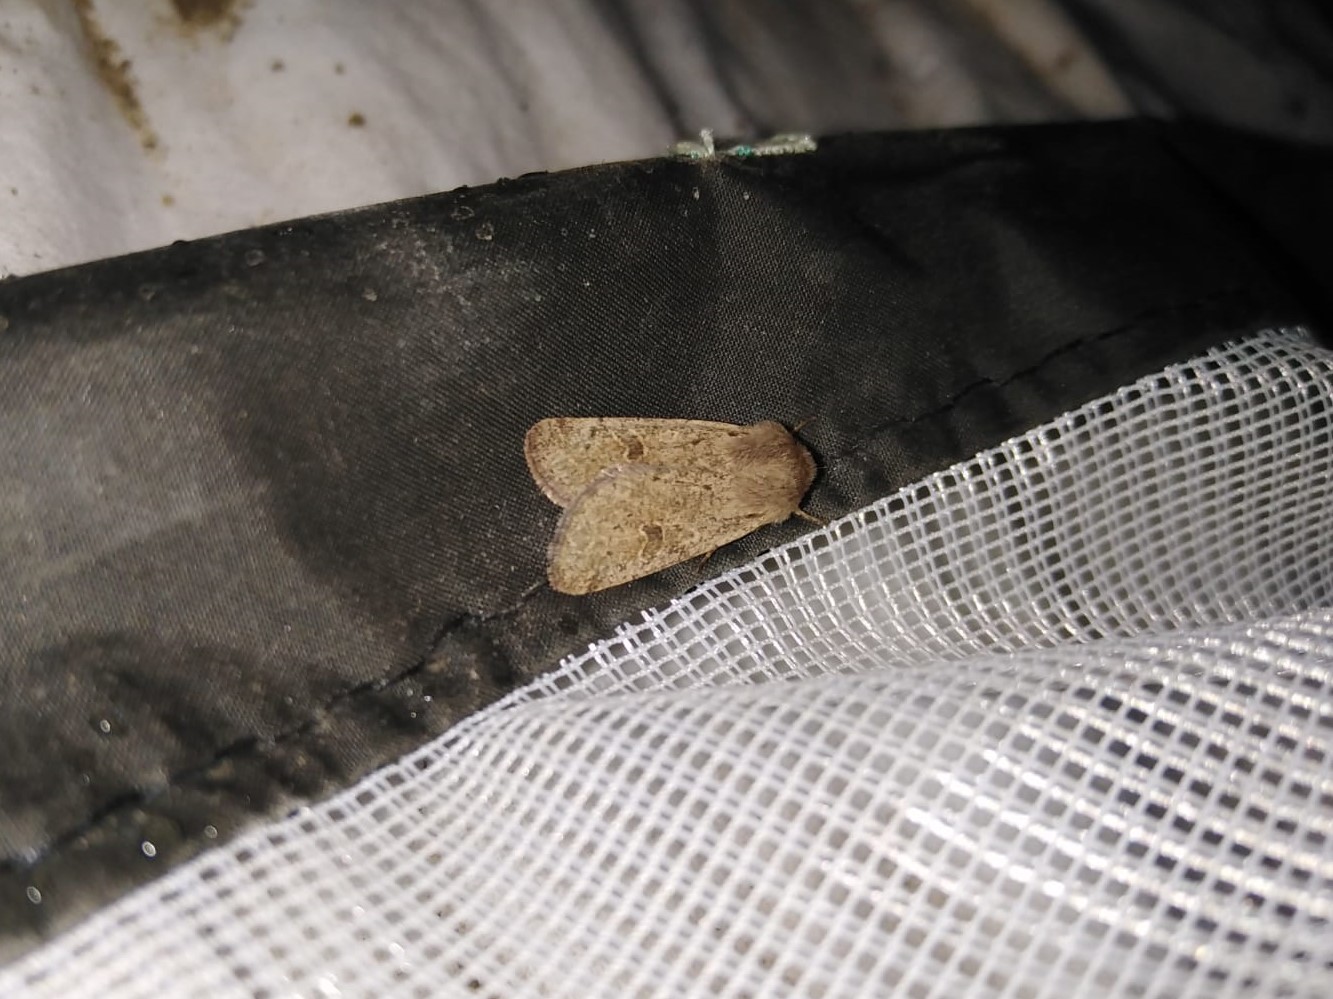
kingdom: Animalia
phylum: Arthropoda
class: Insecta
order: Lepidoptera
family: Noctuidae
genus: Orthosia
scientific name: Orthosia cruda
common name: Small quaker
